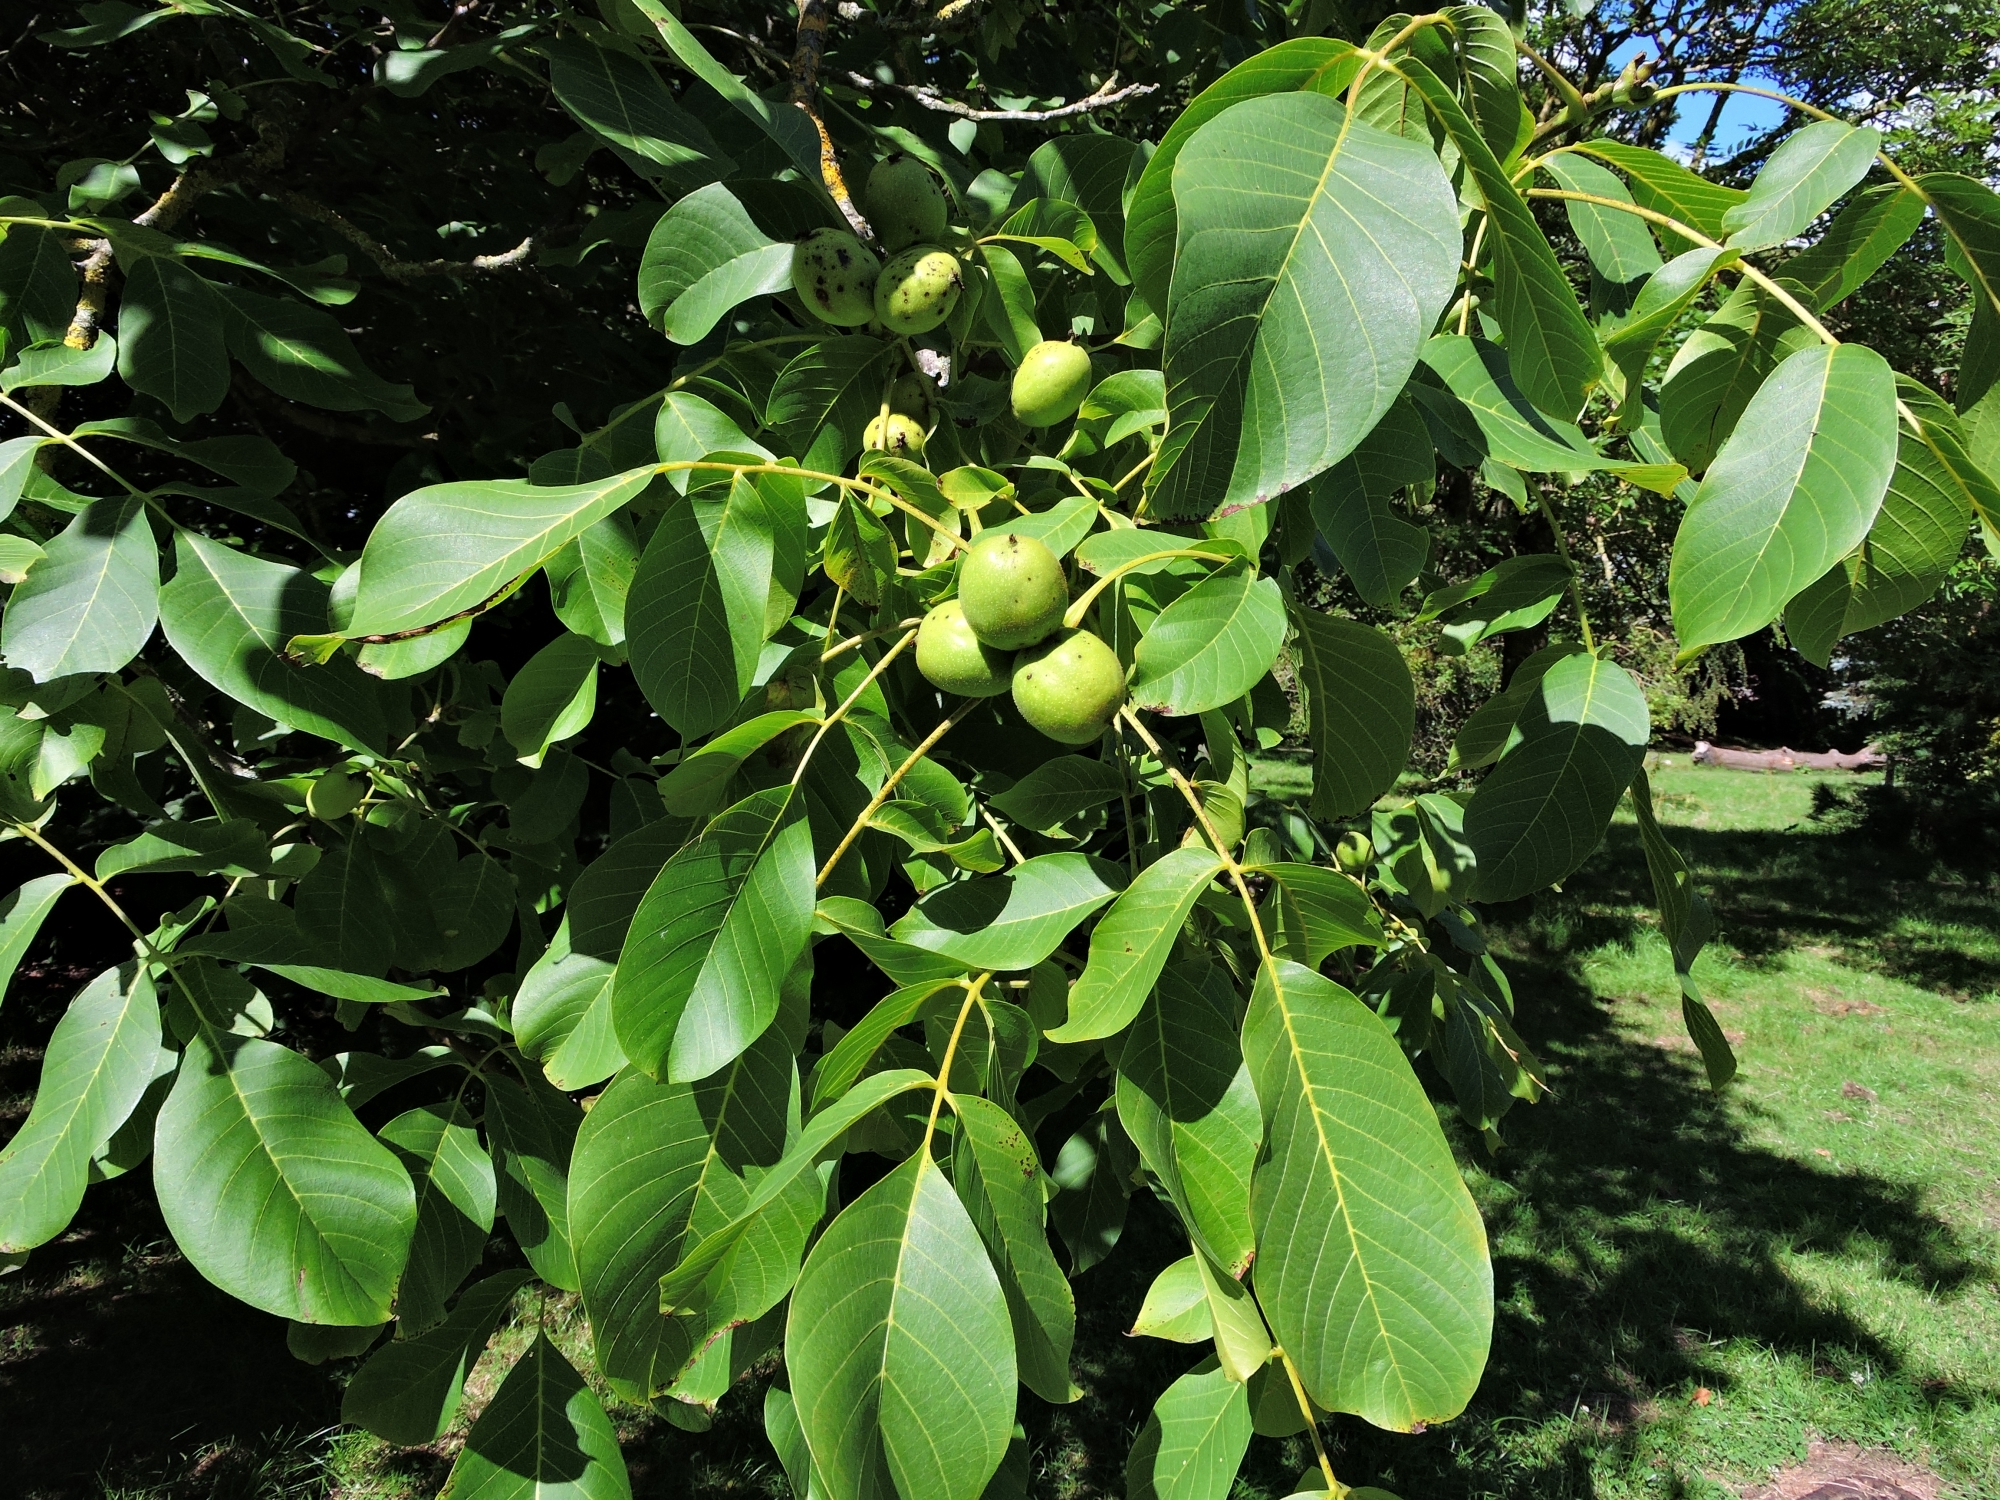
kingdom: Plantae
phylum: Tracheophyta
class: Magnoliopsida
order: Fagales
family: Juglandaceae
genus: Juglans
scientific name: Juglans regia
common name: Walnut
